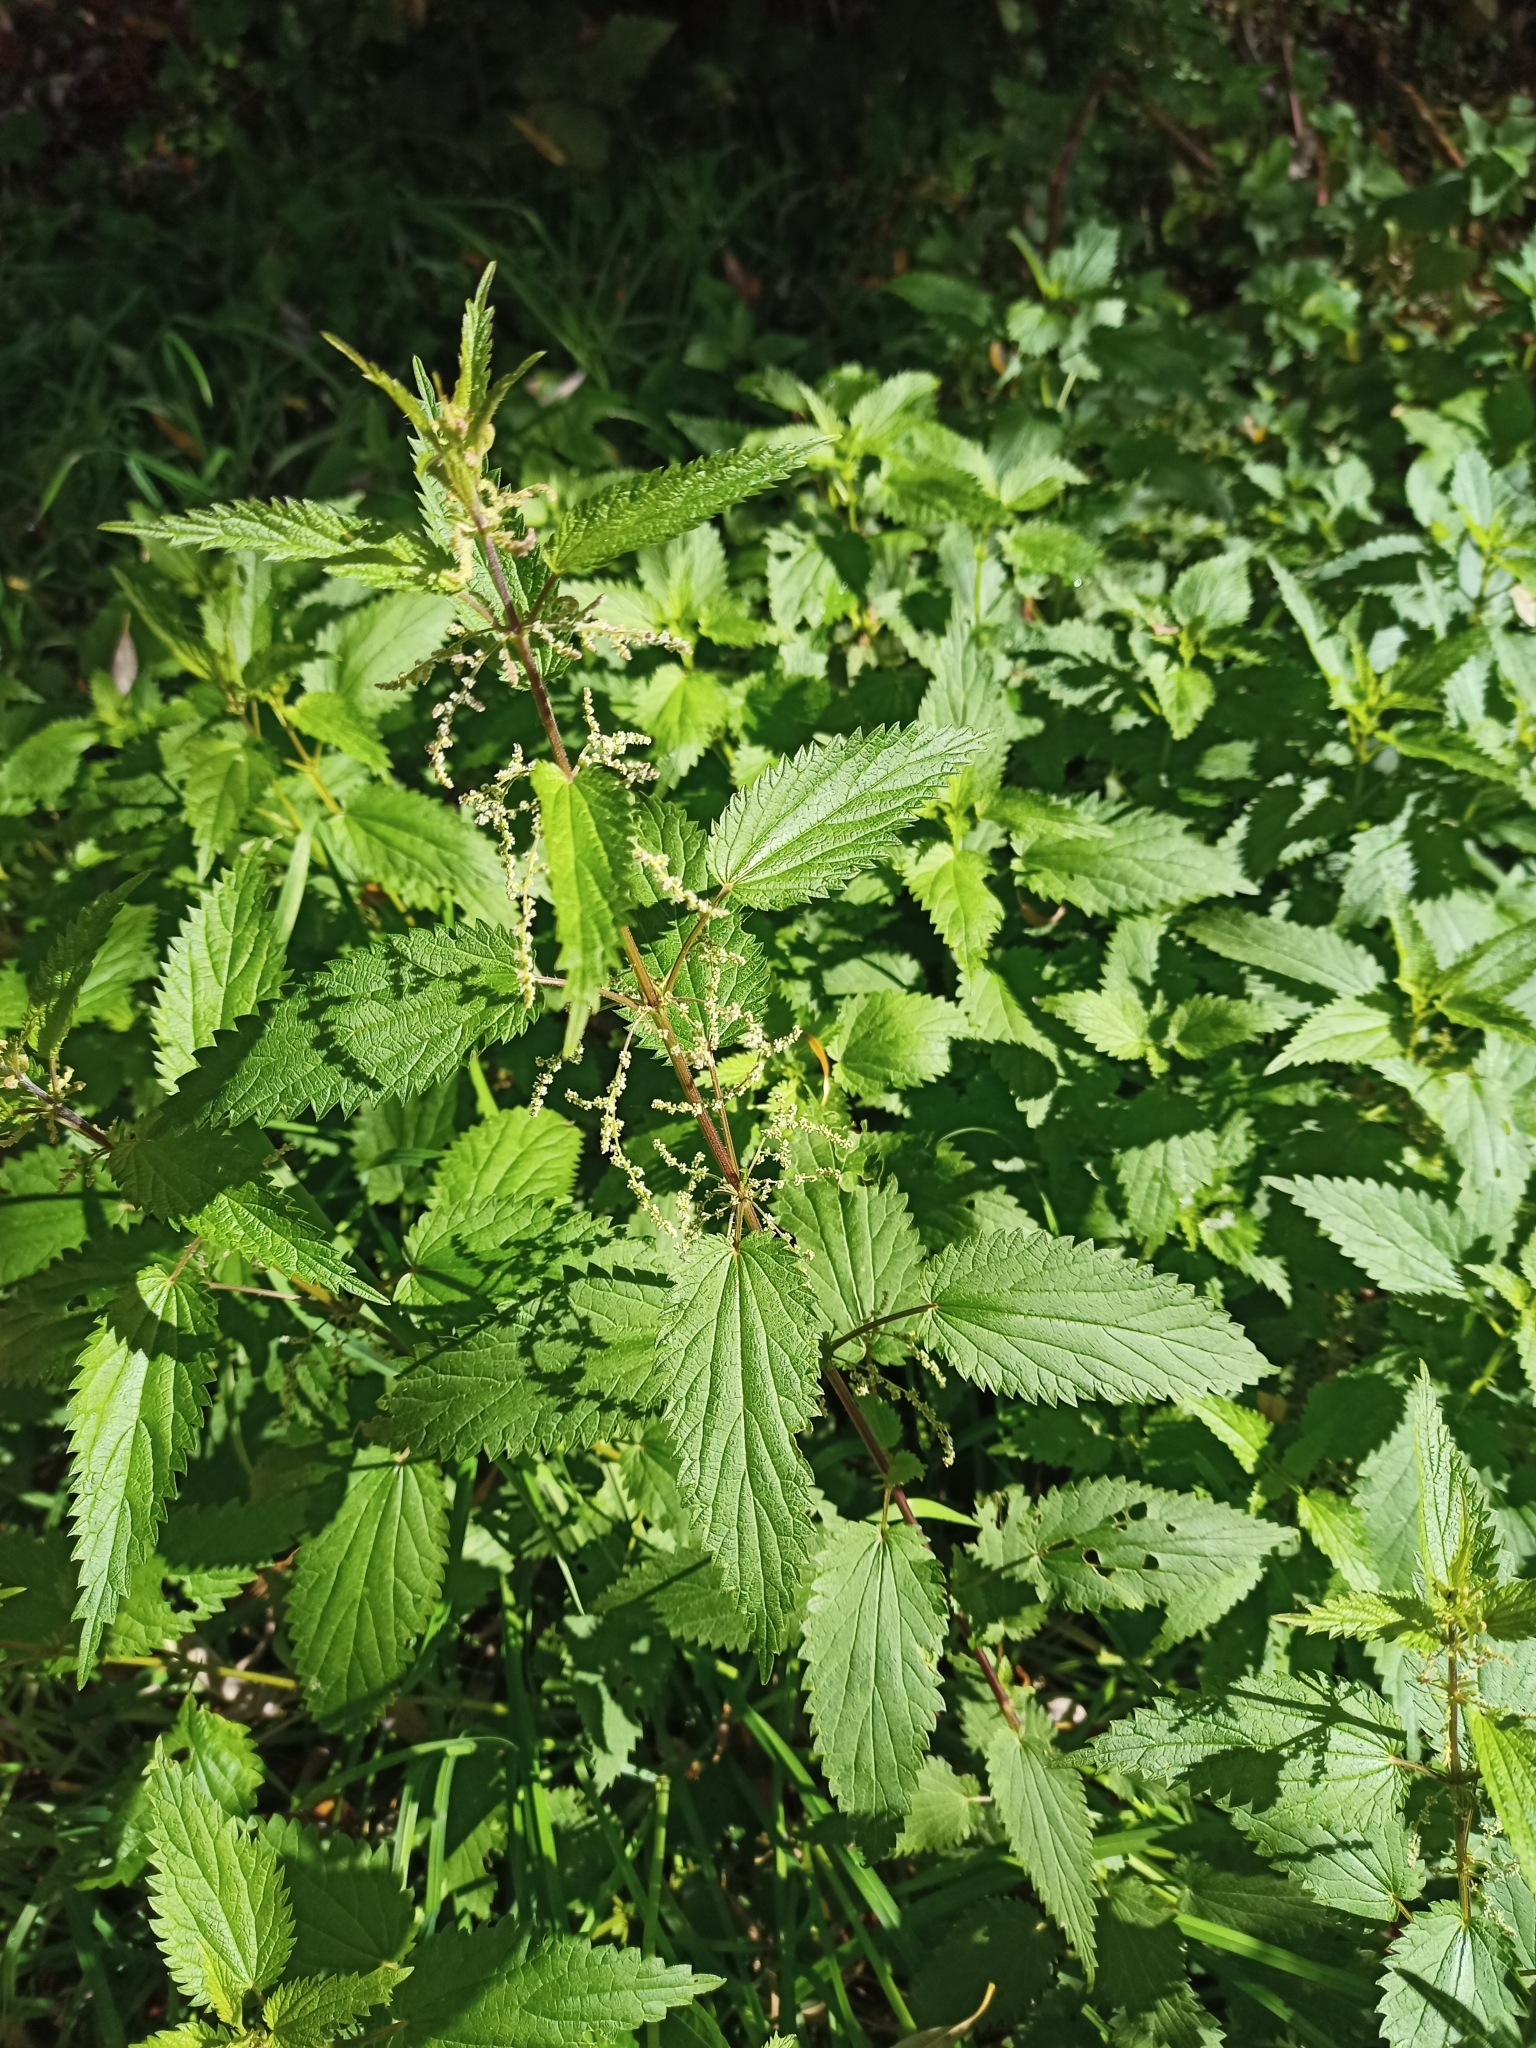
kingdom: Plantae
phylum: Tracheophyta
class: Magnoliopsida
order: Rosales
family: Urticaceae
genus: Urtica
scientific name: Urtica dioica
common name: Common nettle
